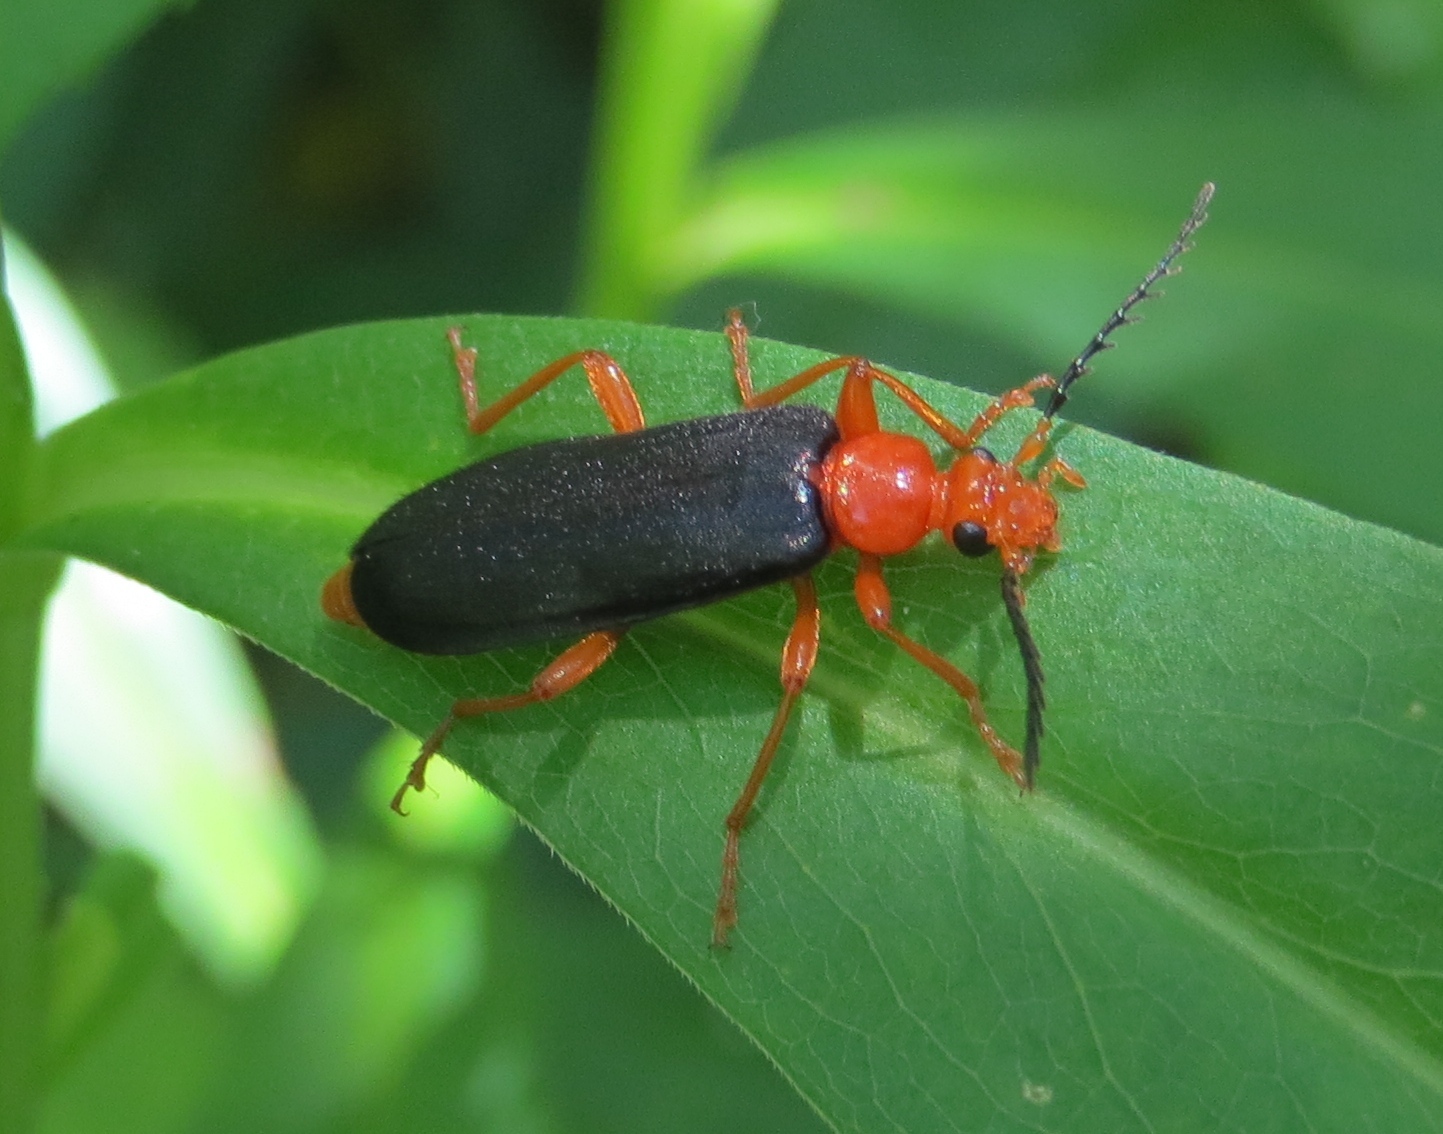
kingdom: Animalia
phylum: Arthropoda
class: Insecta
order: Coleoptera
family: Pyrochroidae
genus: Neopyrochroa
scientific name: Neopyrochroa flabellata
